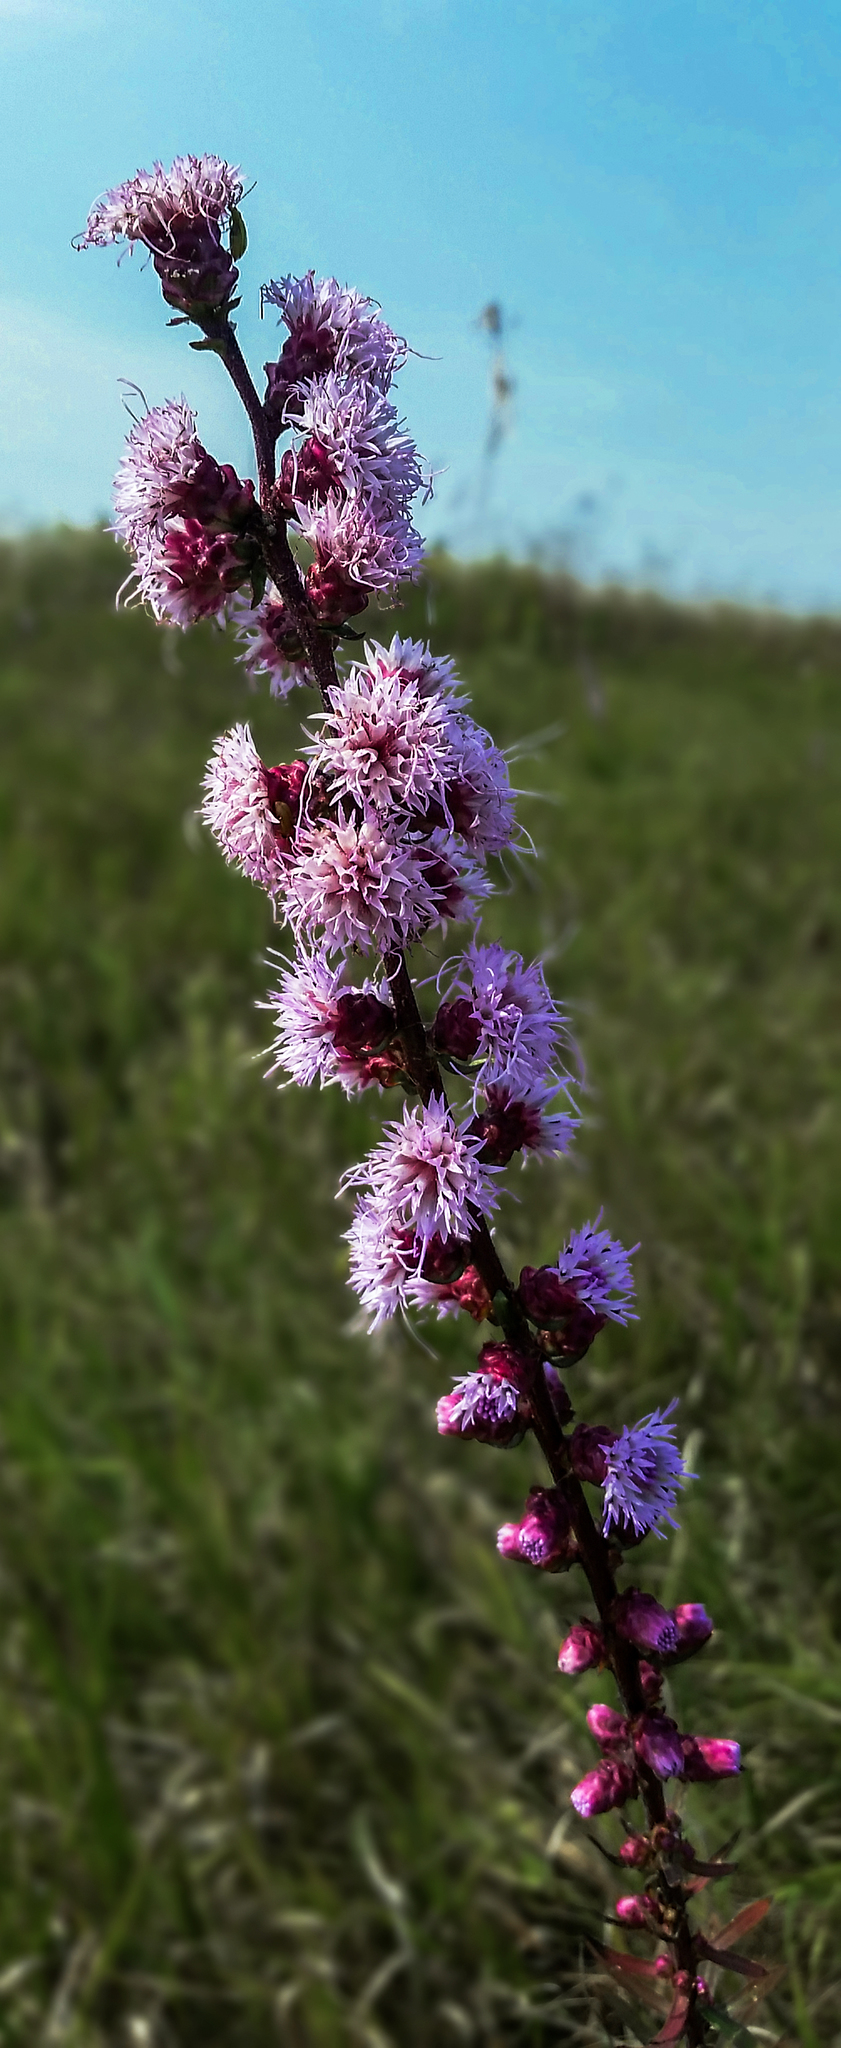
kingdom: Plantae
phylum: Tracheophyta
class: Magnoliopsida
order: Asterales
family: Asteraceae
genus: Liatris
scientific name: Liatris aspera
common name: Lacerate blazing-star
